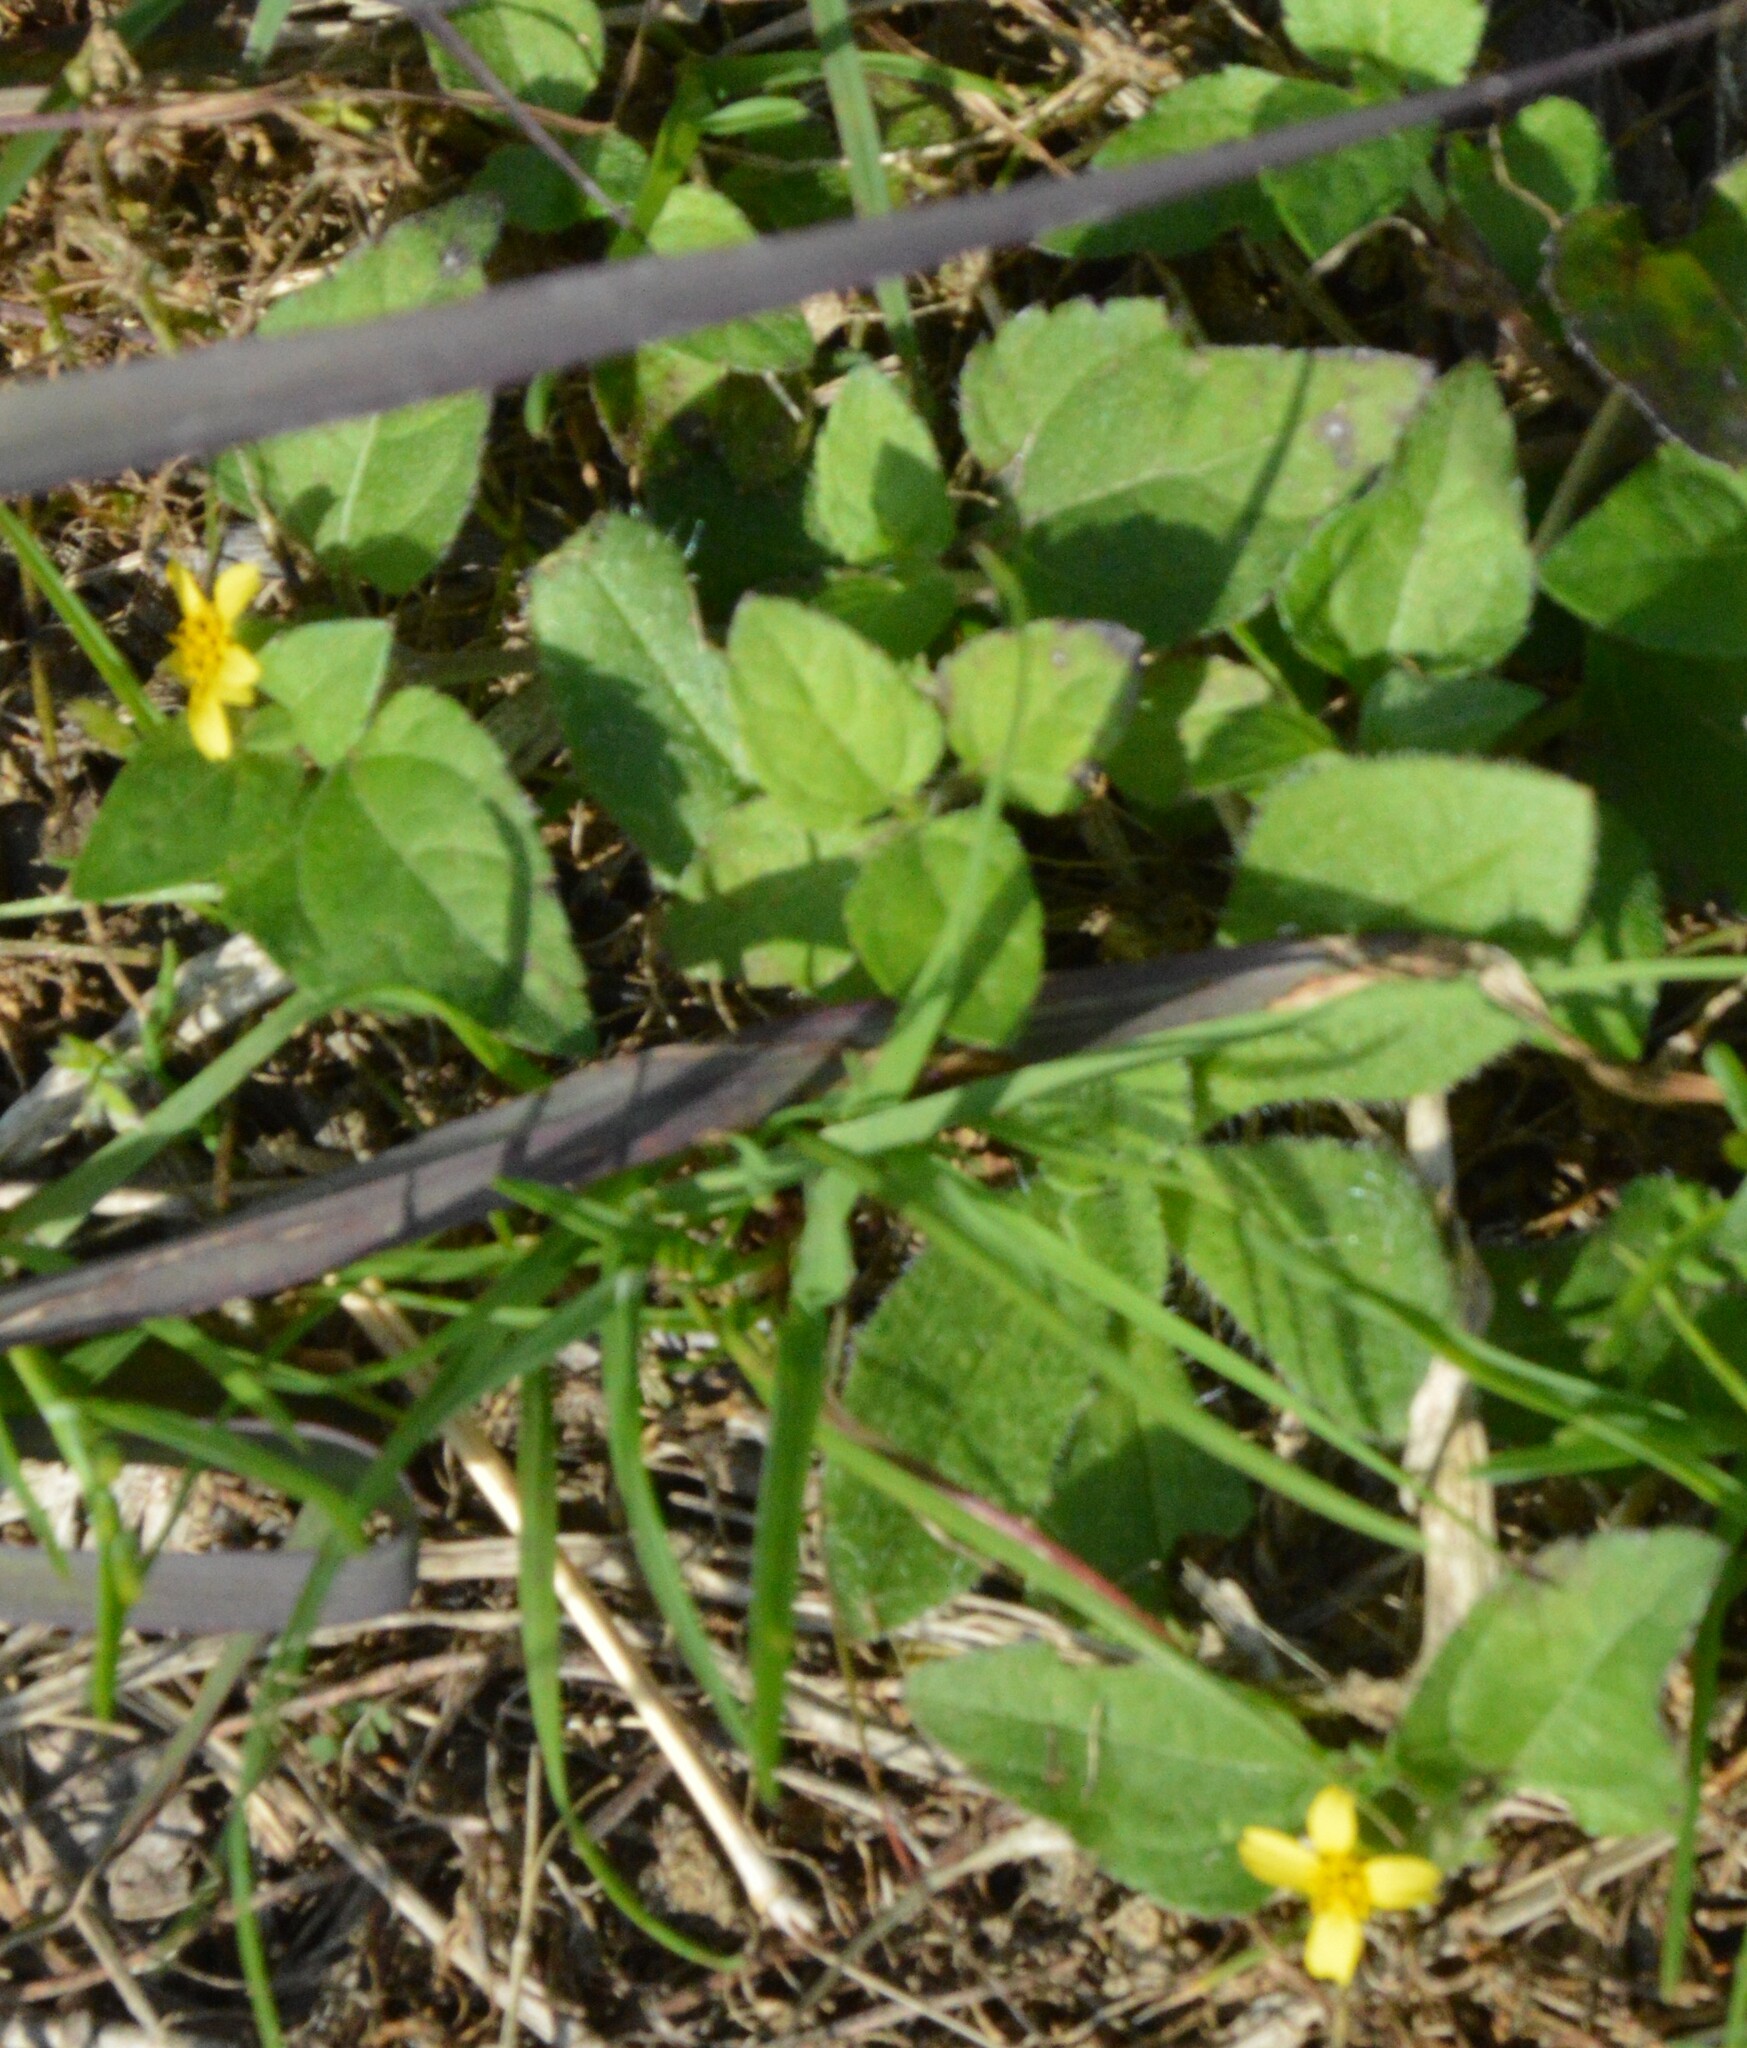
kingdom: Plantae
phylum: Tracheophyta
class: Magnoliopsida
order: Asterales
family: Asteraceae
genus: Calyptocarpus
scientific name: Calyptocarpus vialis
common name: Straggler daisy
